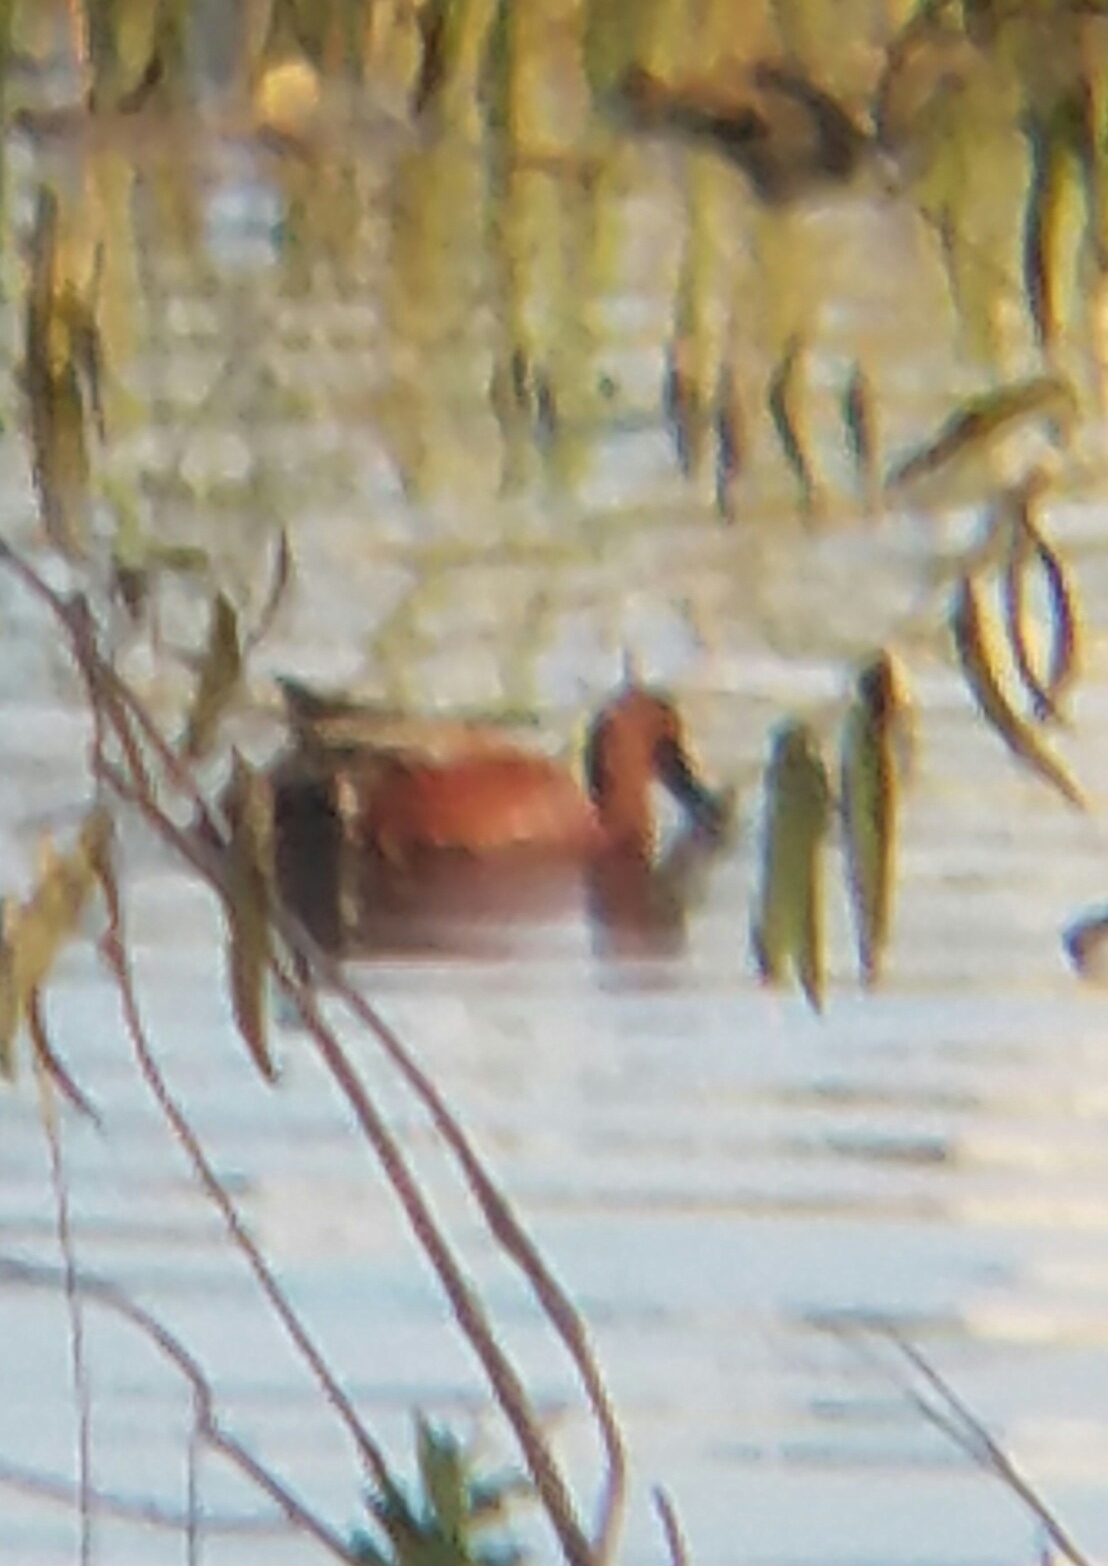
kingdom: Animalia
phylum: Chordata
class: Aves
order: Anseriformes
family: Anatidae
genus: Spatula
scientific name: Spatula cyanoptera
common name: Cinnamon teal
